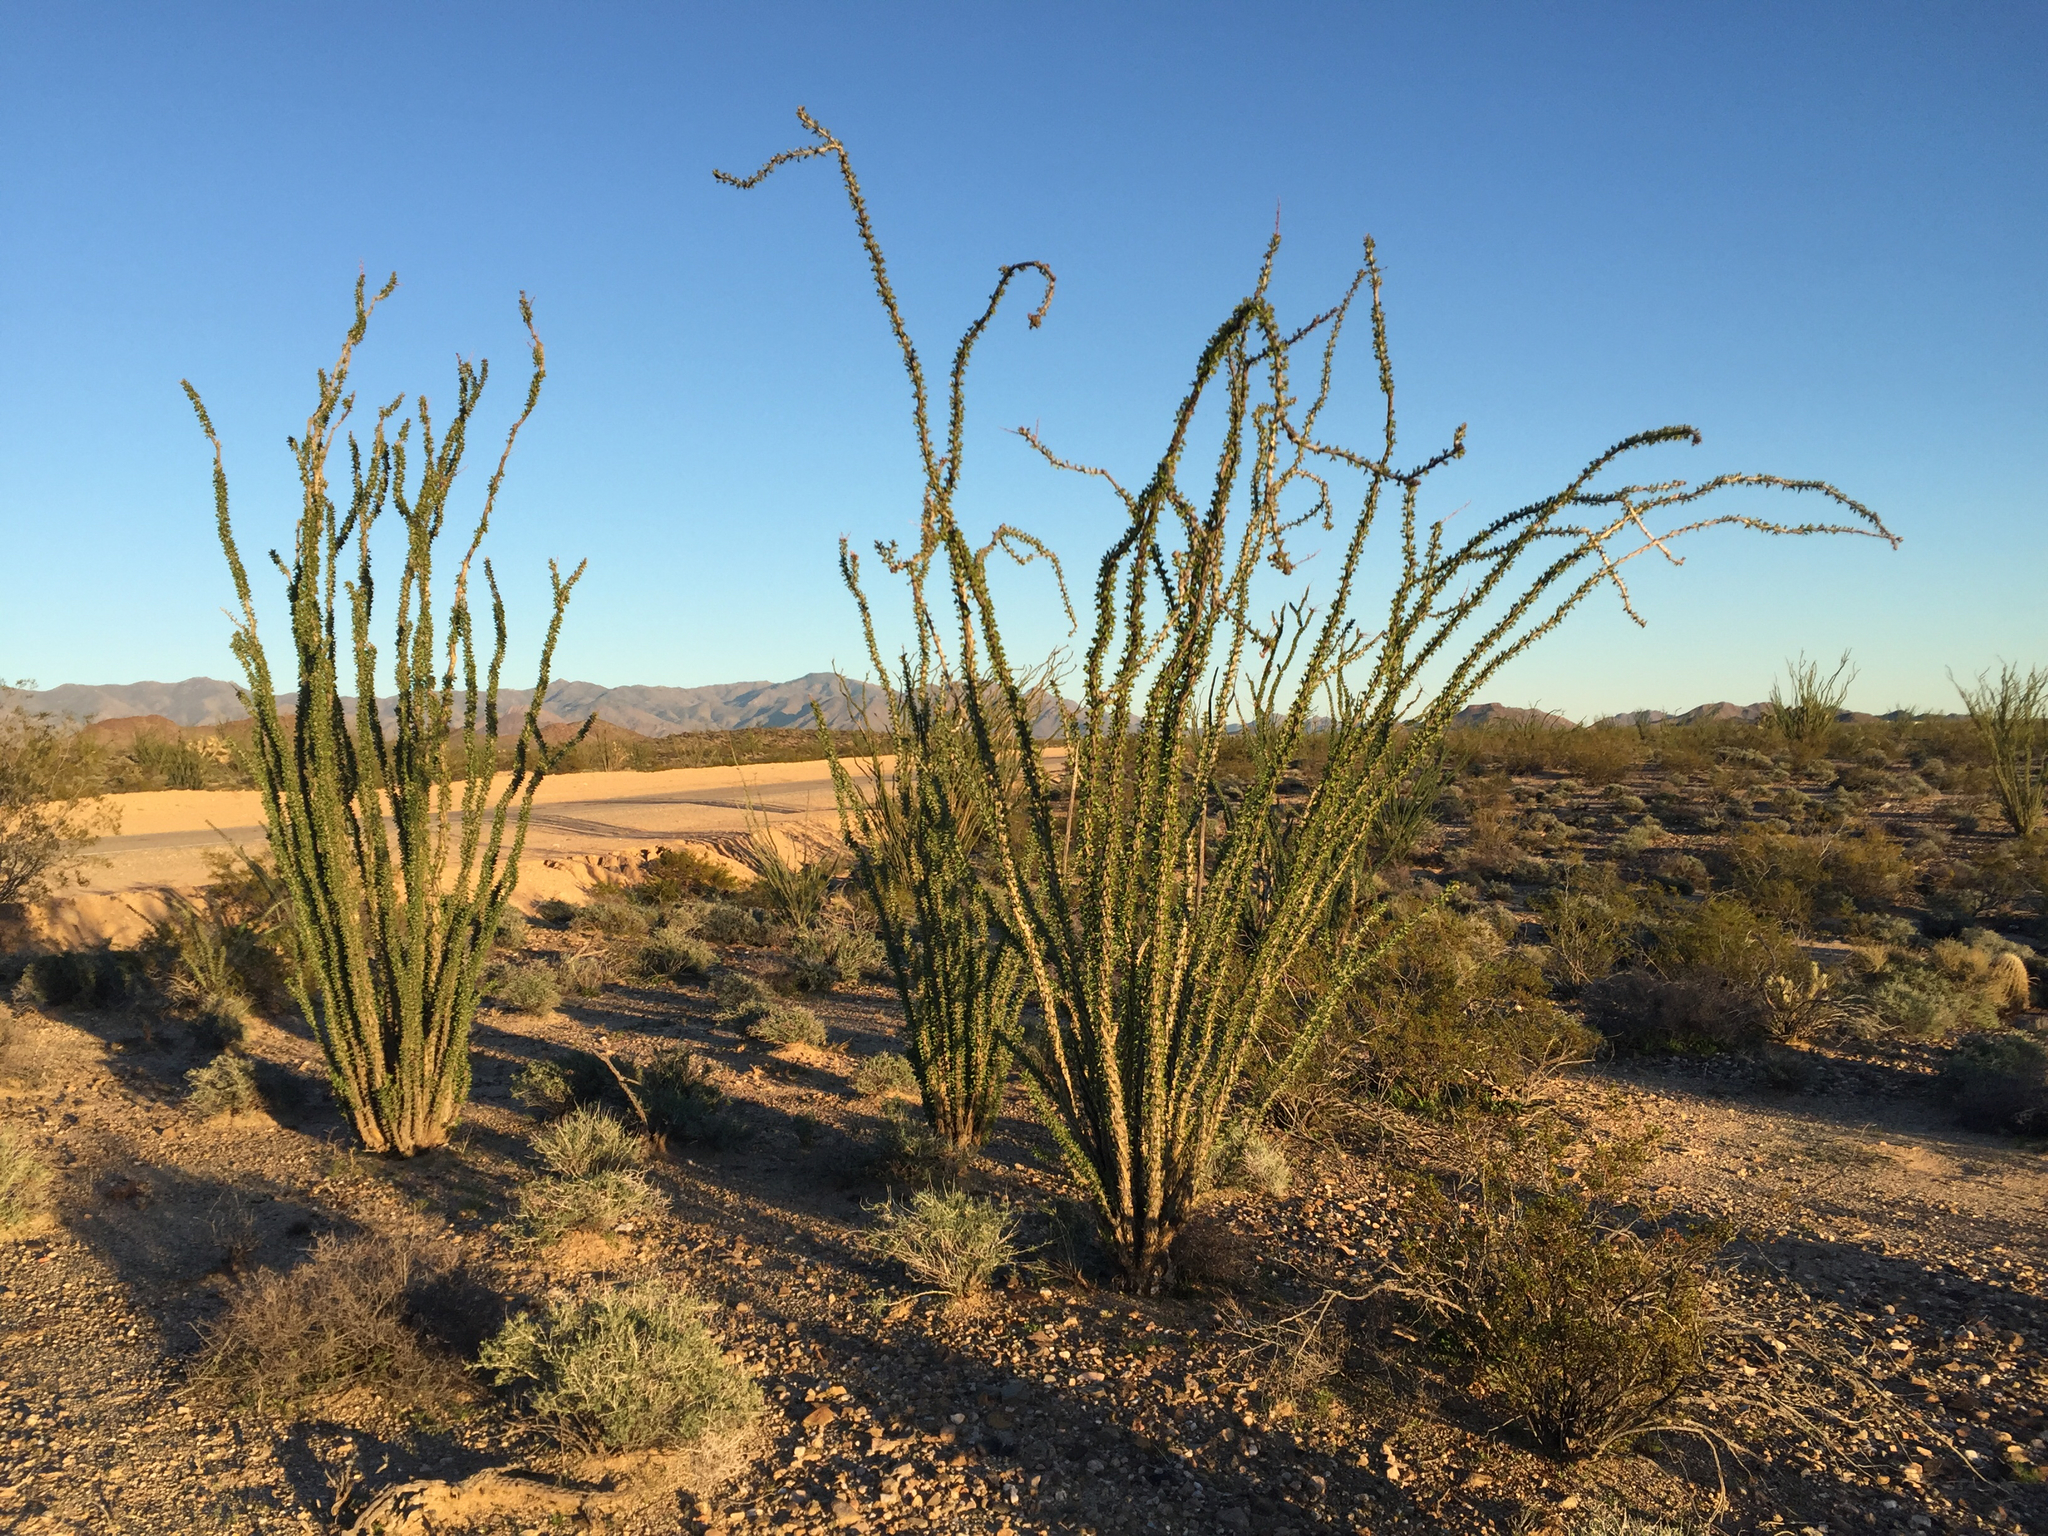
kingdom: Plantae
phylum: Tracheophyta
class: Magnoliopsida
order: Ericales
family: Fouquieriaceae
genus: Fouquieria
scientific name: Fouquieria splendens
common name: Vine-cactus
